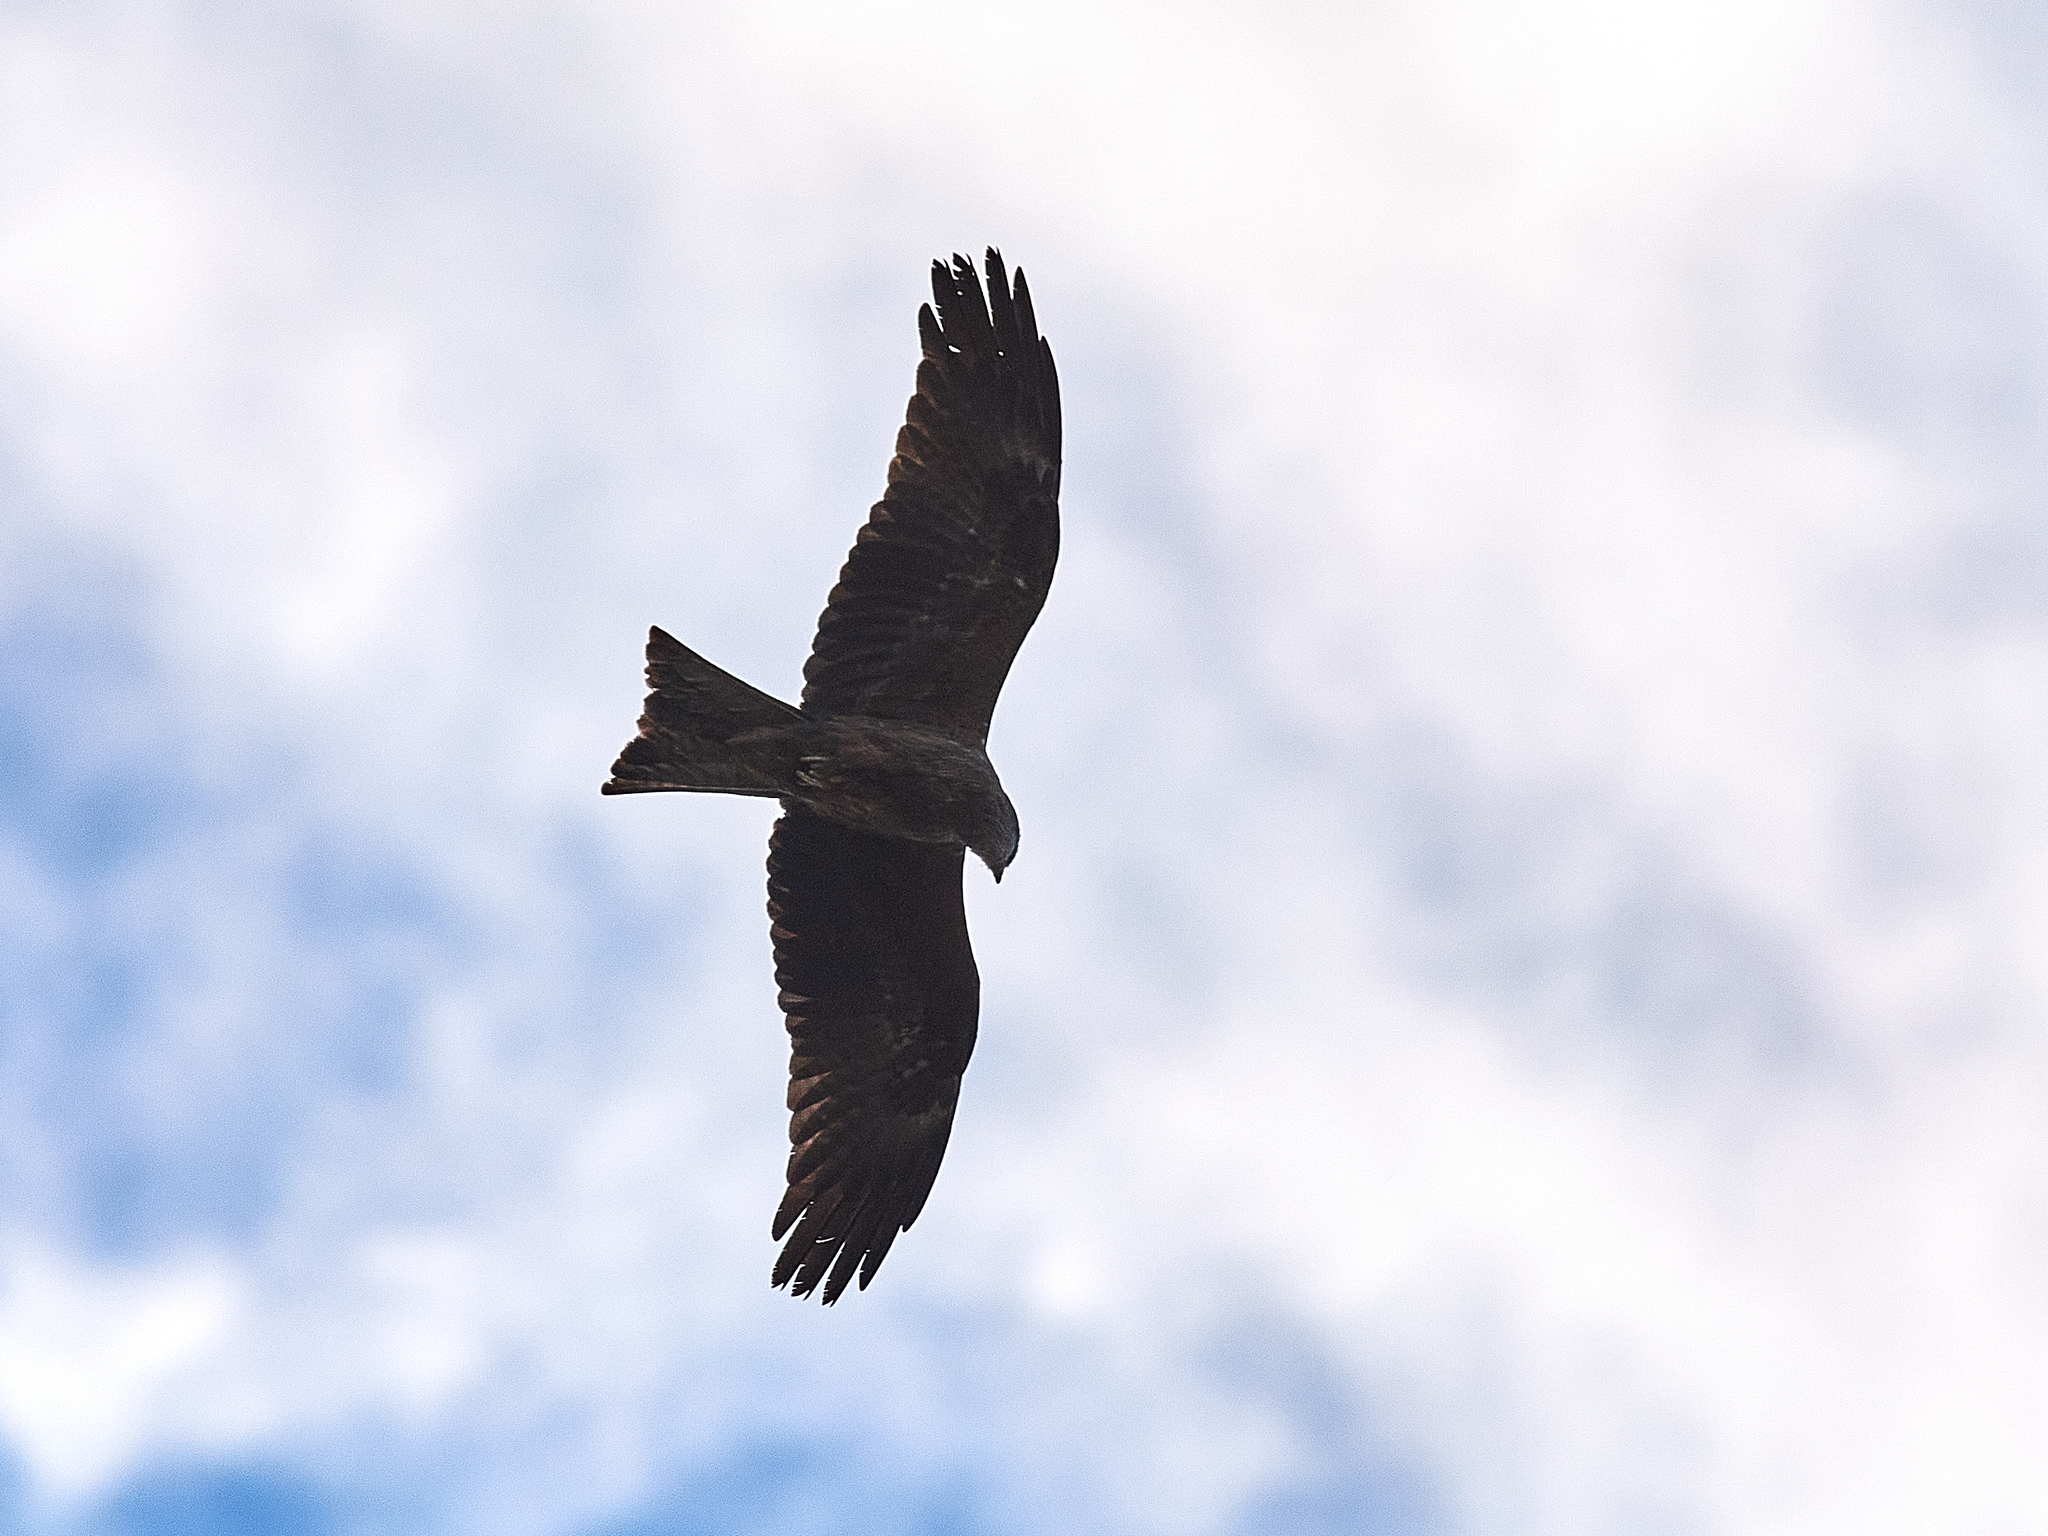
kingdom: Animalia
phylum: Chordata
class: Aves
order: Accipitriformes
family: Accipitridae
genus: Milvus
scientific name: Milvus migrans
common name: Black kite
